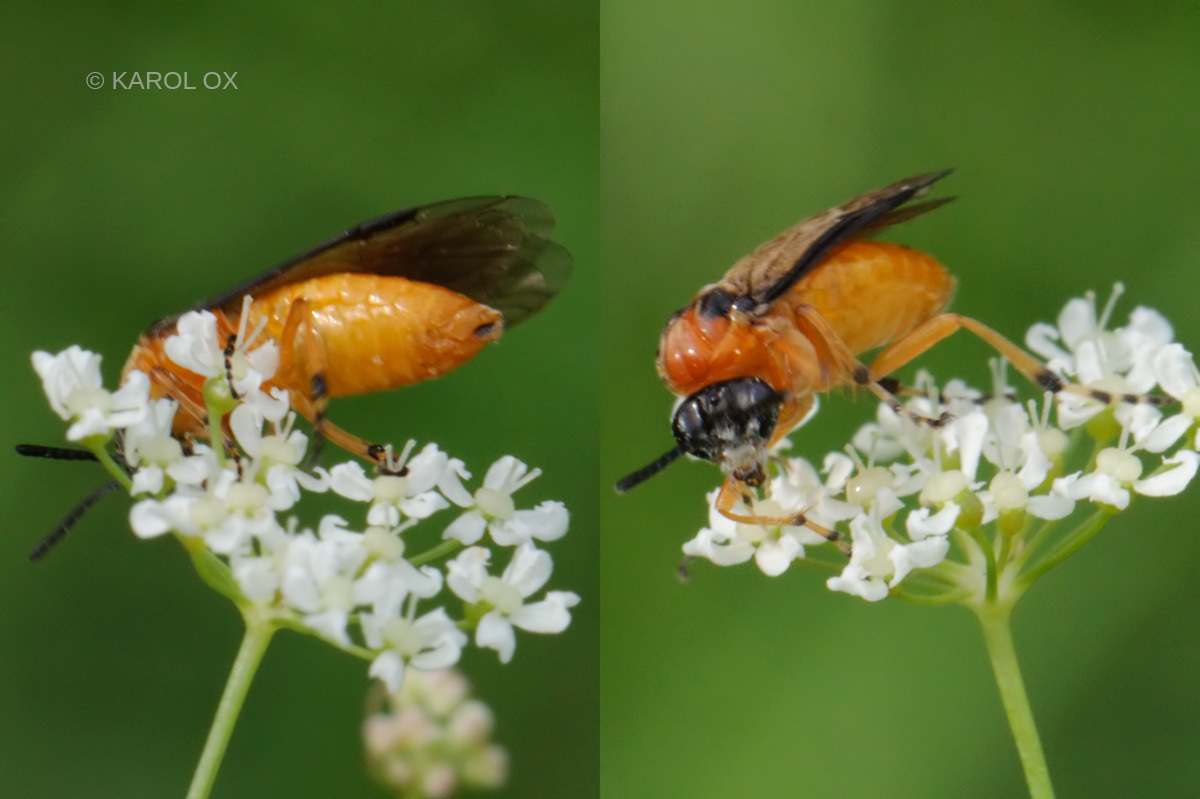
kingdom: Animalia
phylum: Arthropoda
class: Insecta
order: Hymenoptera
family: Tenthredinidae
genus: Athalia
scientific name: Athalia rosae
